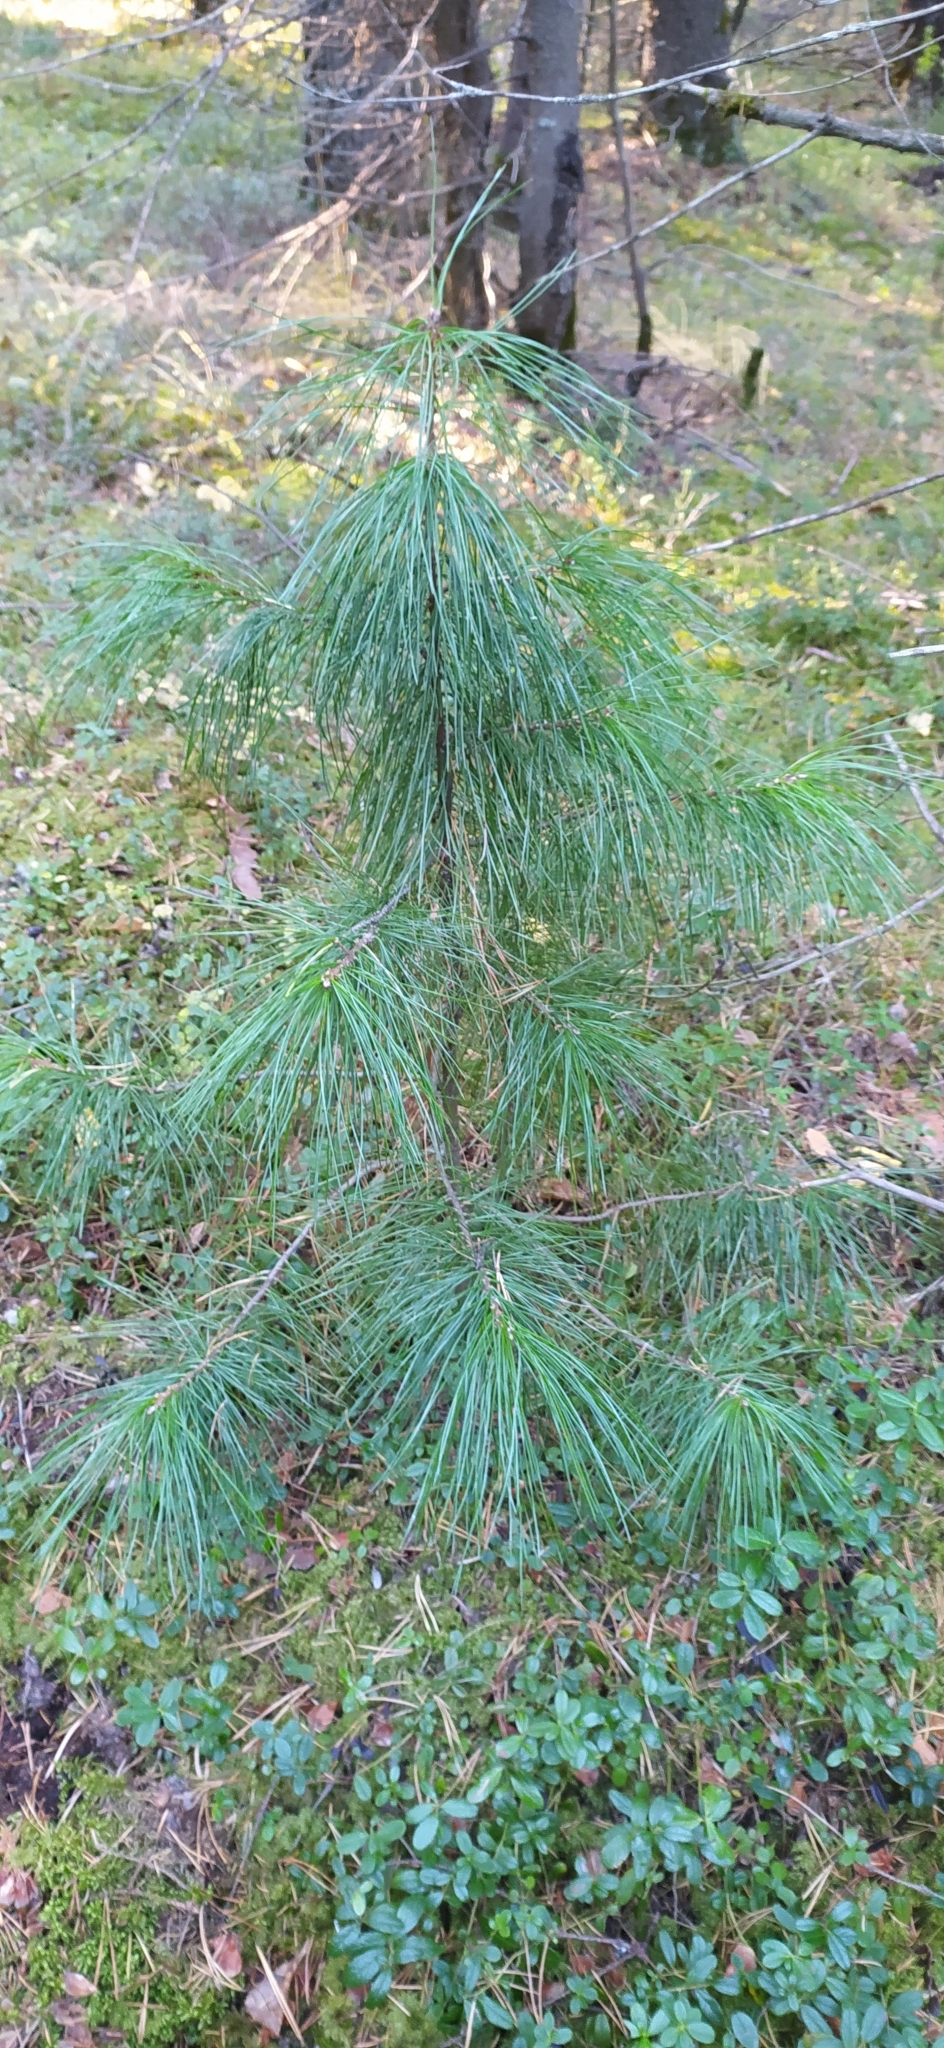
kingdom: Plantae
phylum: Tracheophyta
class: Pinopsida
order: Pinales
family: Pinaceae
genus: Pinus
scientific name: Pinus sibirica
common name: Siberian pine
